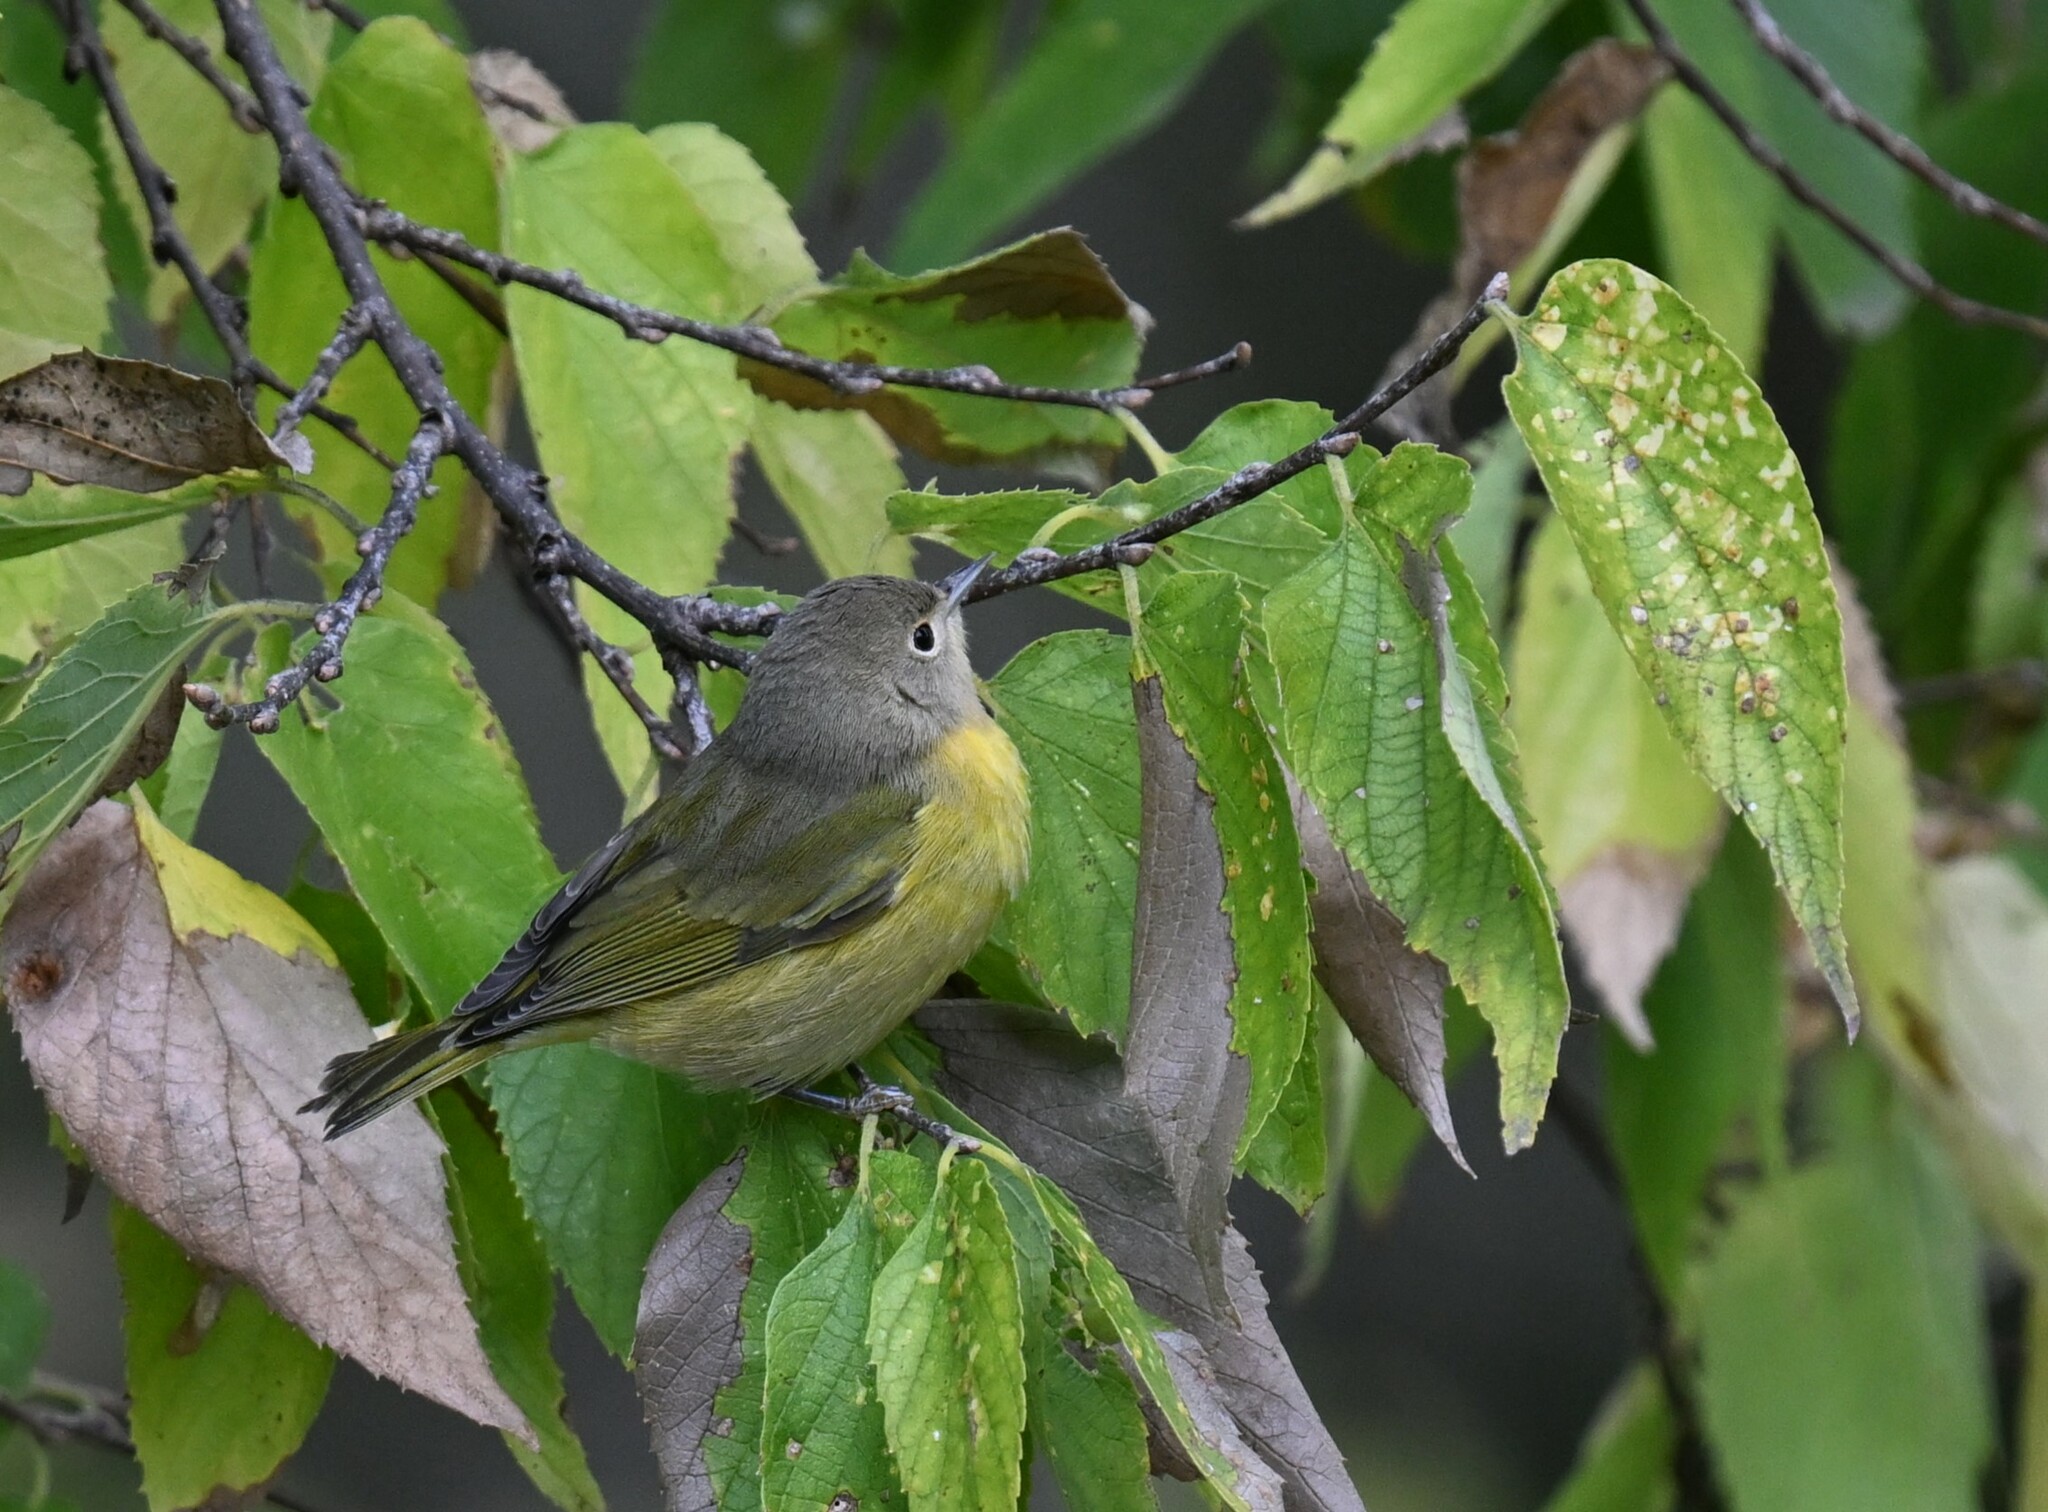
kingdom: Animalia
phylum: Chordata
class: Aves
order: Passeriformes
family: Parulidae
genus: Leiothlypis
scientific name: Leiothlypis ruficapilla
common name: Nashville warbler
